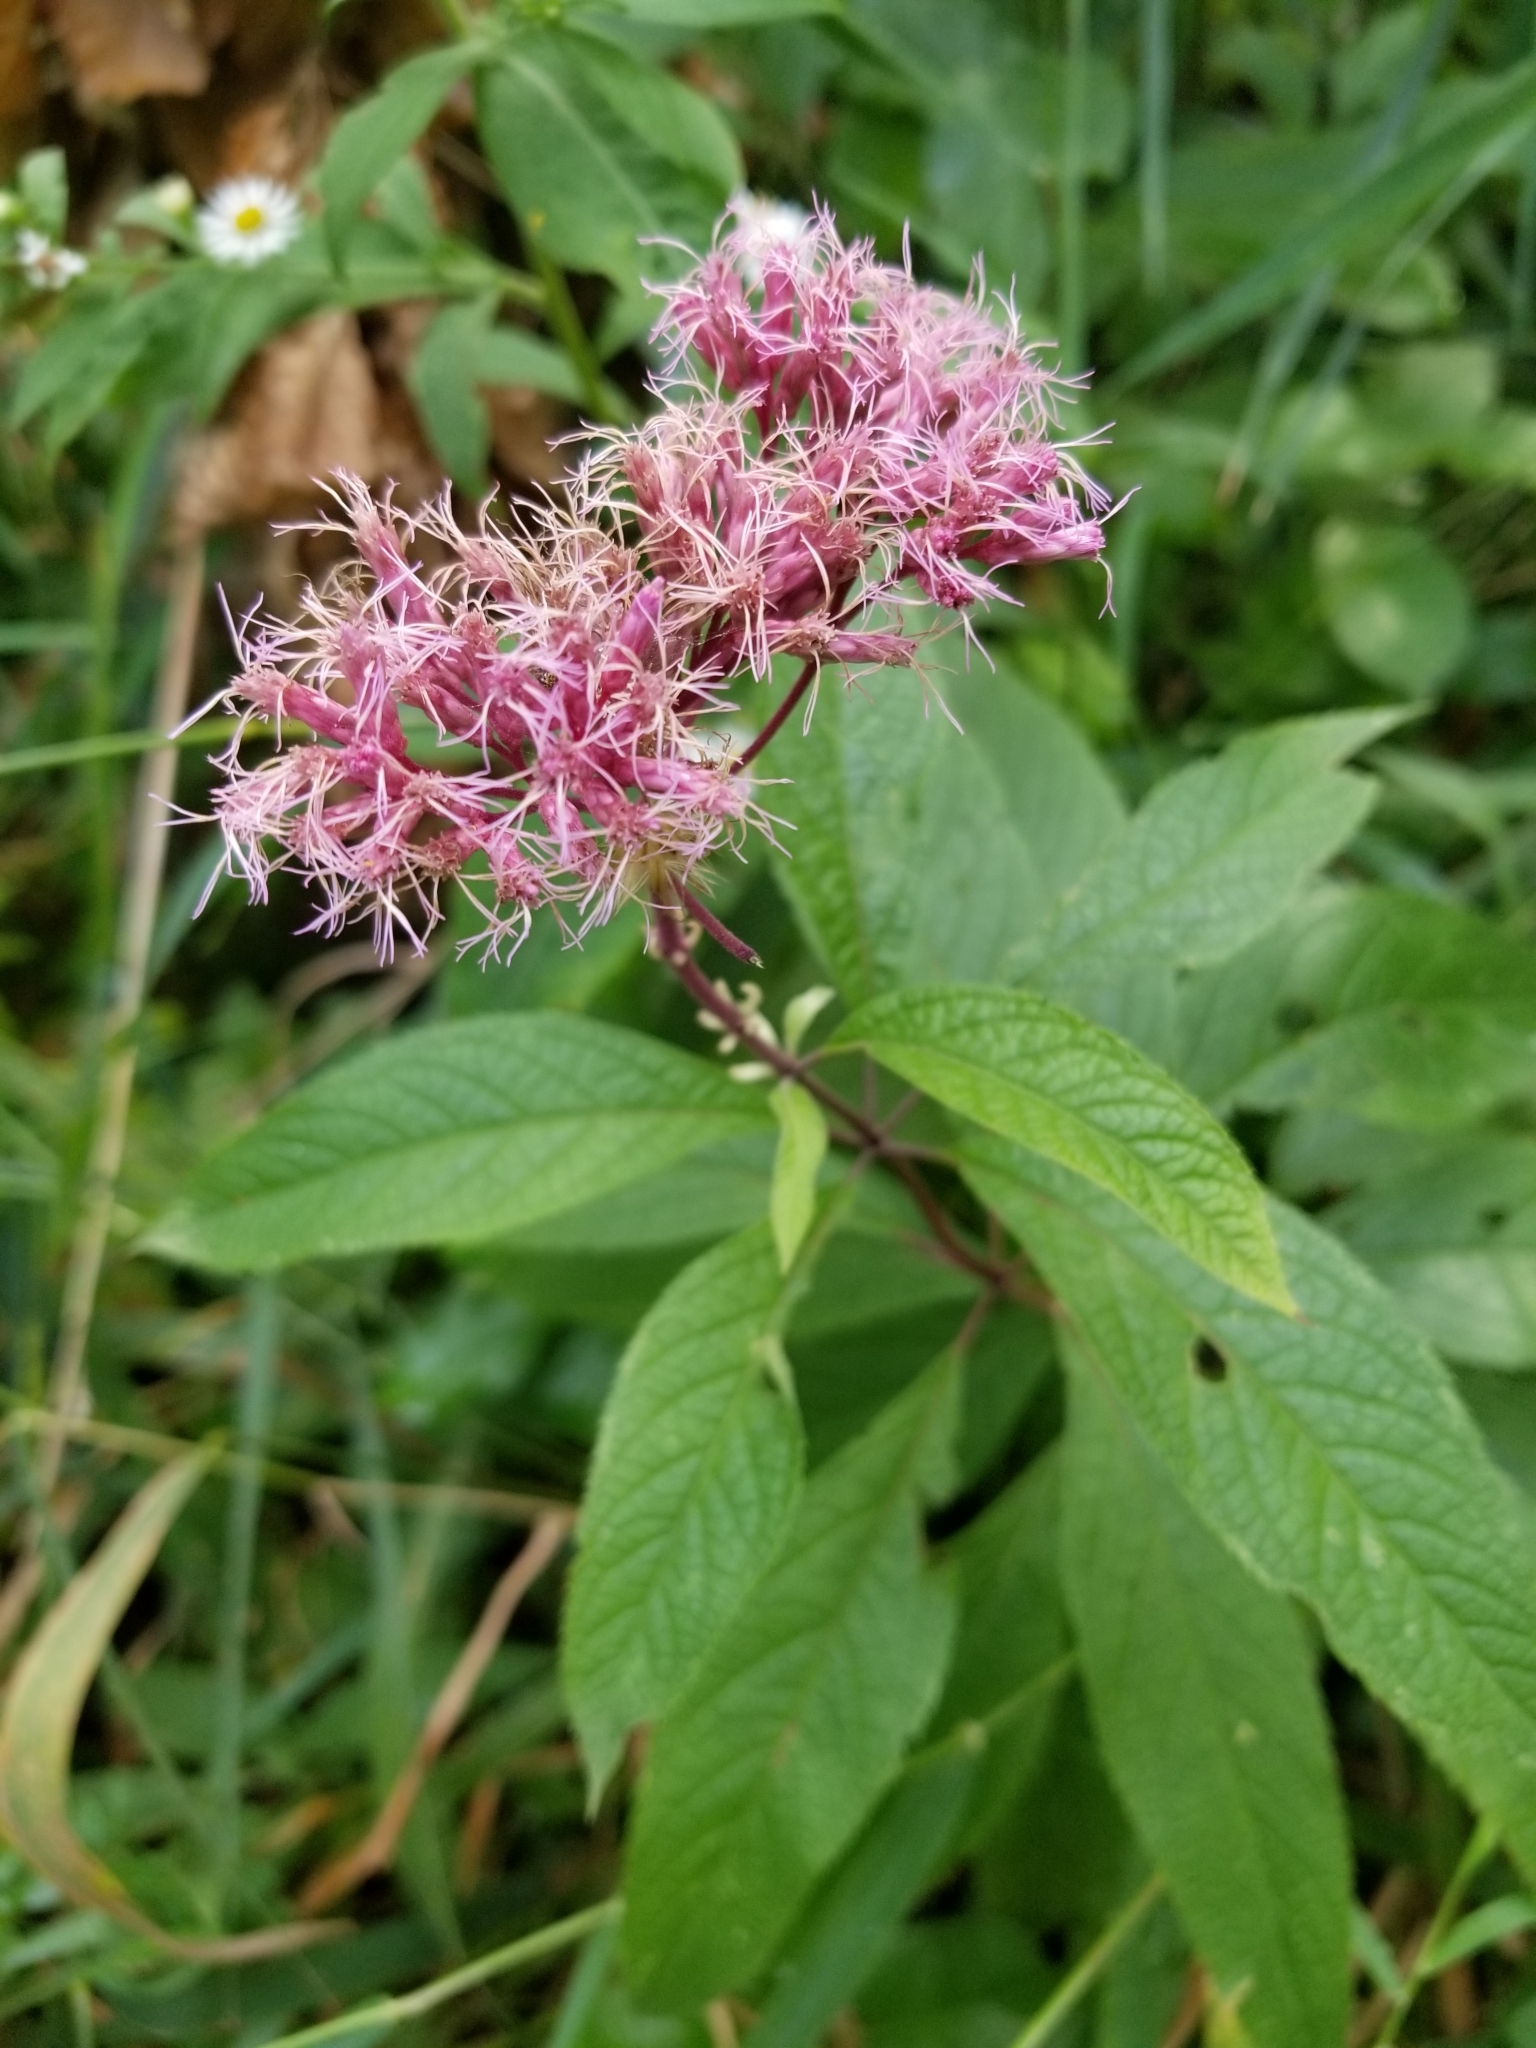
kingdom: Plantae
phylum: Tracheophyta
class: Magnoliopsida
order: Asterales
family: Asteraceae
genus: Eutrochium
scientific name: Eutrochium maculatum
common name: Spotted joe pye weed
